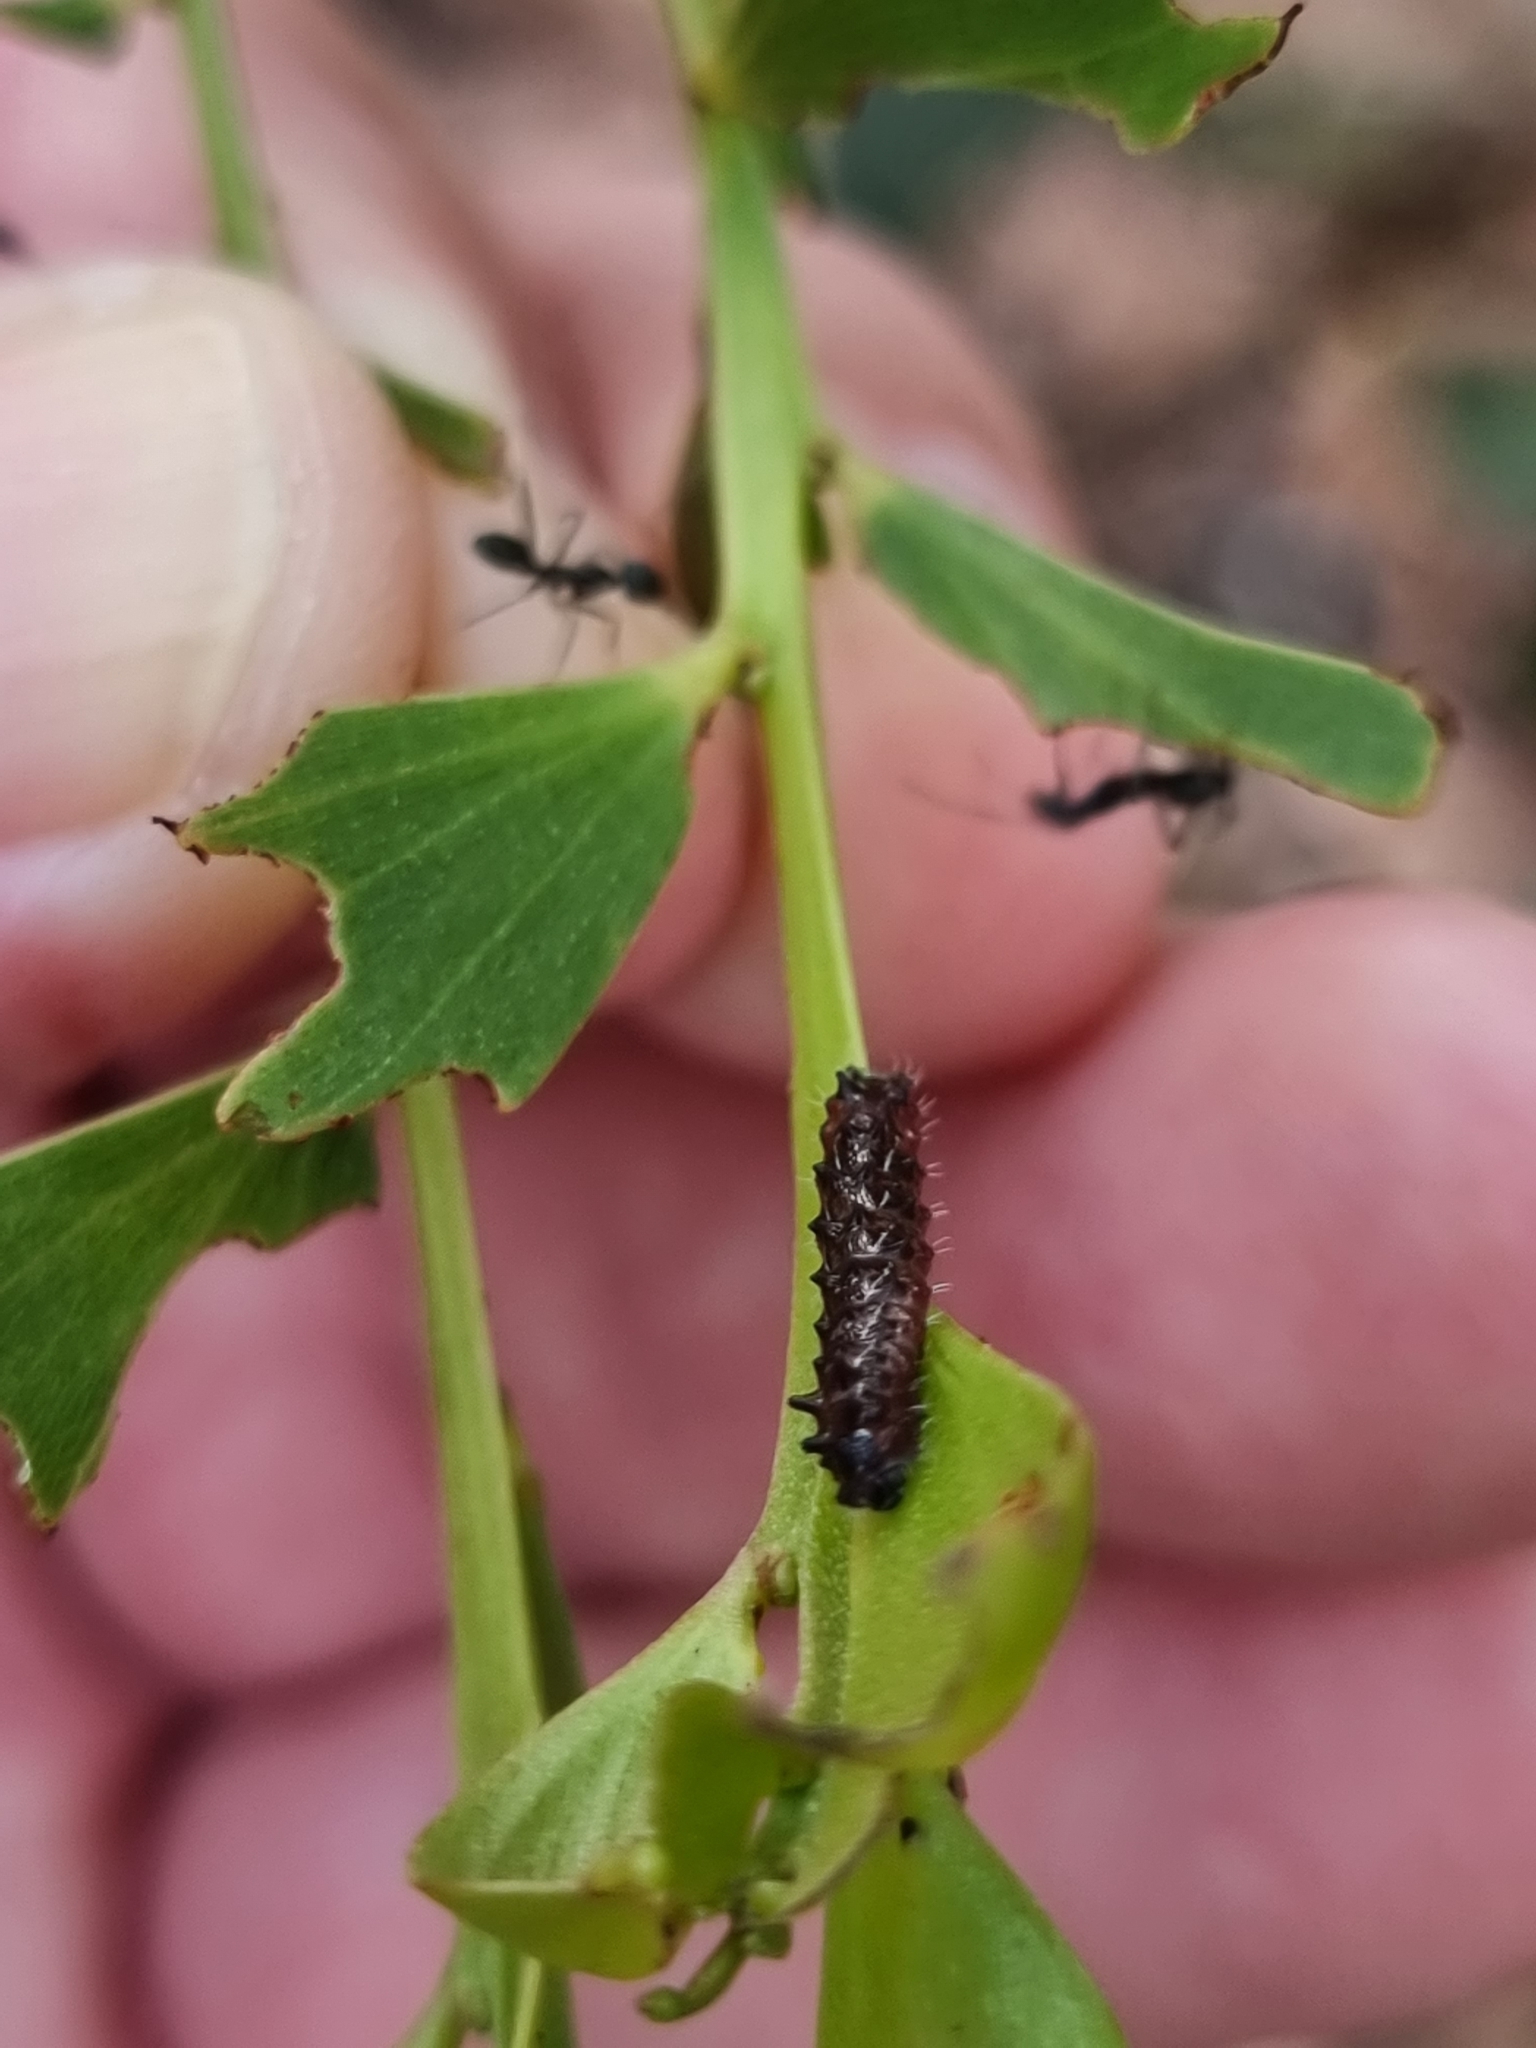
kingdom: Animalia
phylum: Arthropoda
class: Insecta
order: Lepidoptera
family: Lycaenidae
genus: Jalmenus
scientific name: Jalmenus evagoras
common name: Common imperial blue
